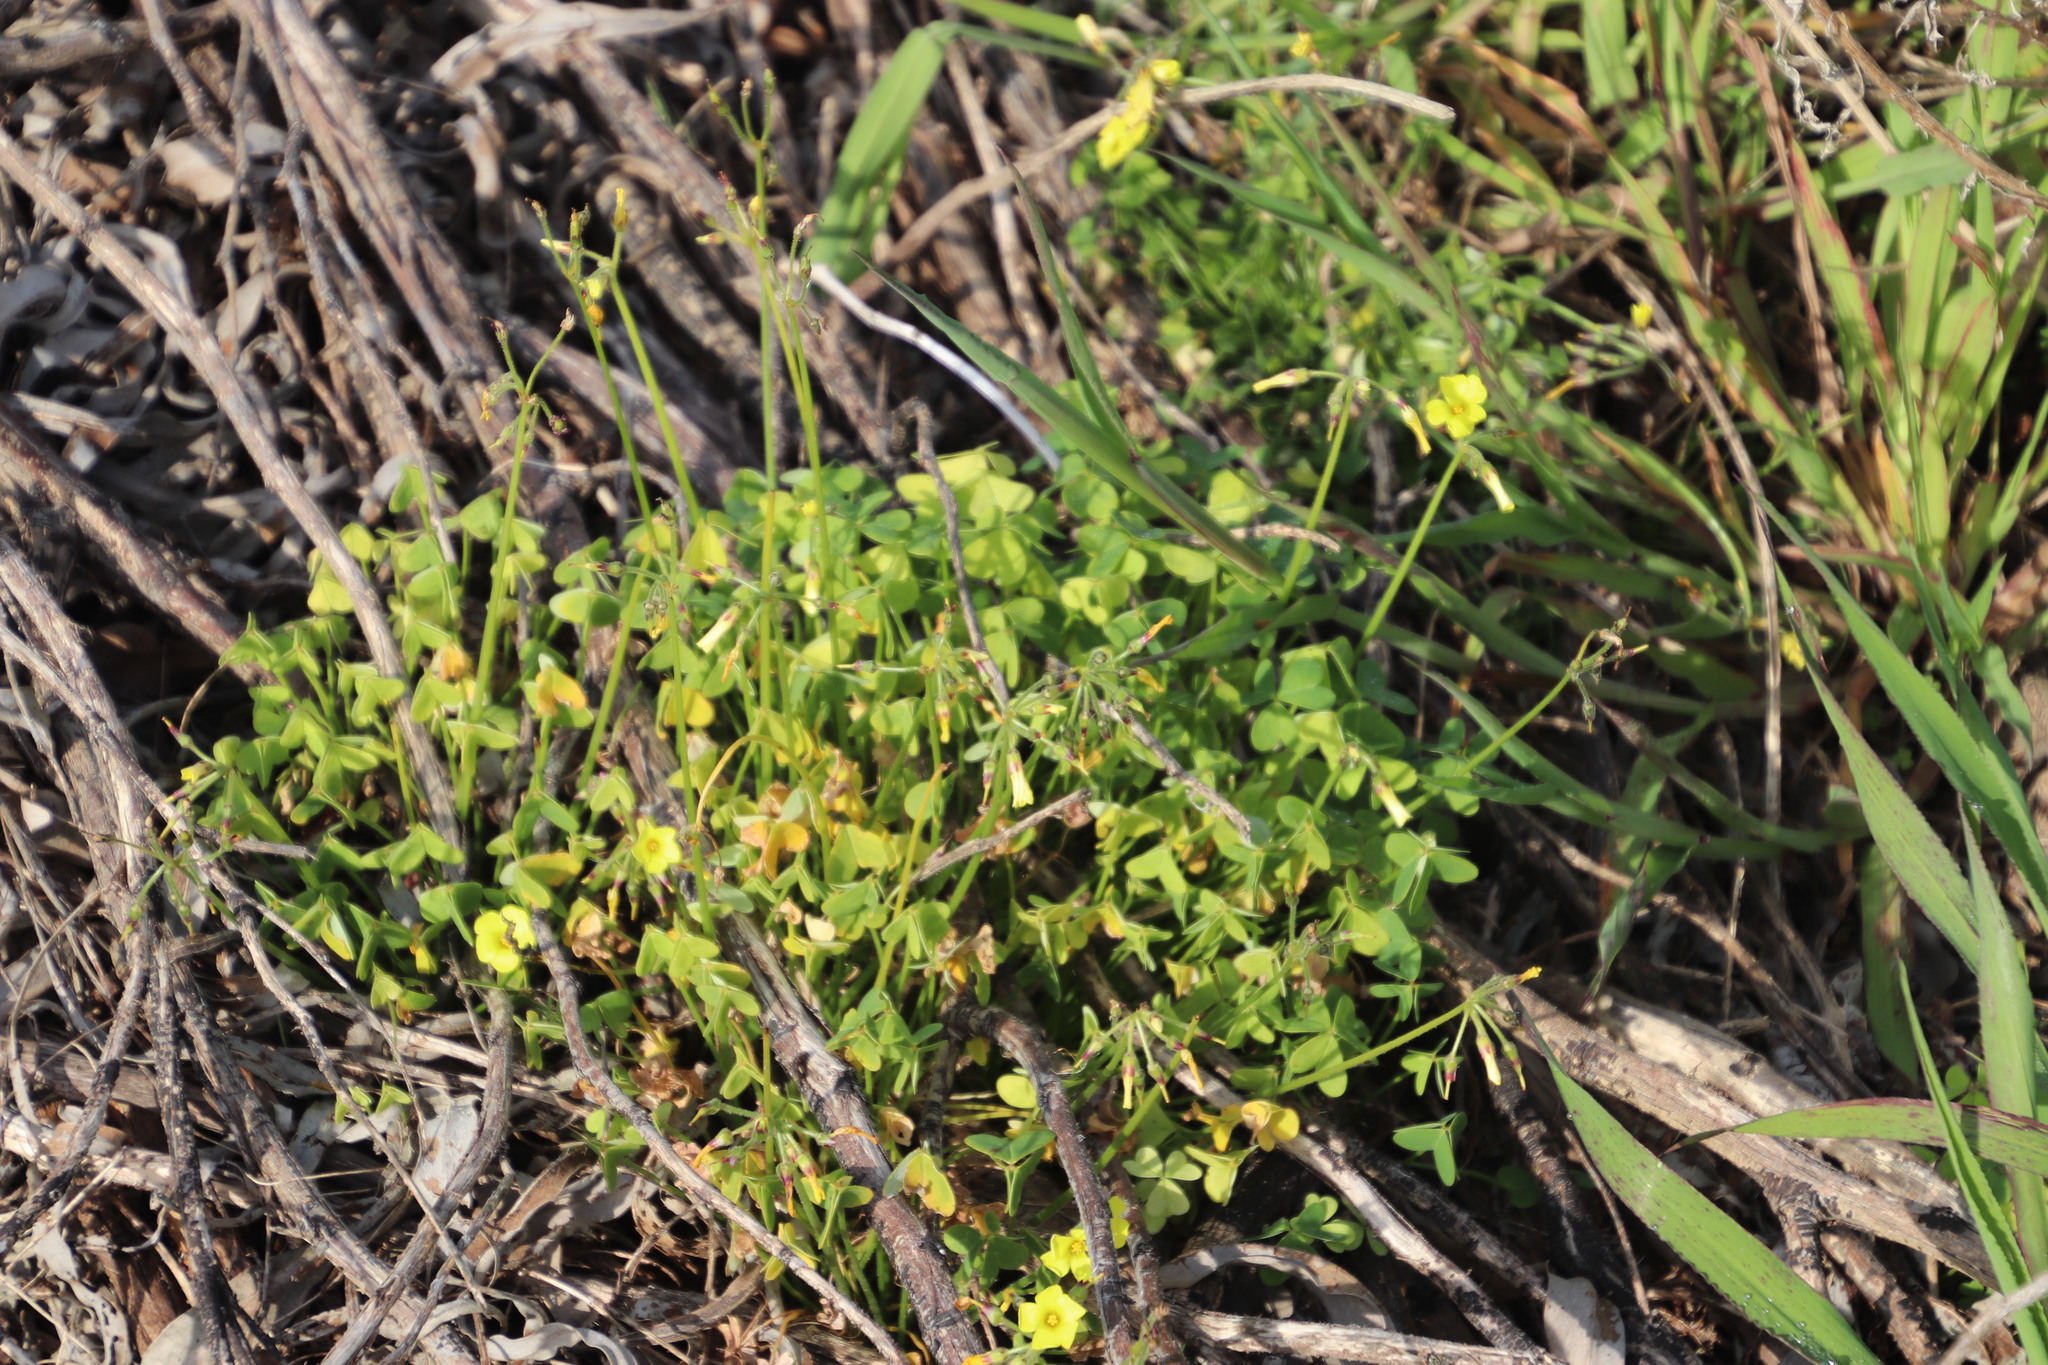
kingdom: Plantae
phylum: Tracheophyta
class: Magnoliopsida
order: Oxalidales
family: Oxalidaceae
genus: Oxalis
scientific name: Oxalis pes-caprae
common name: Bermuda-buttercup
